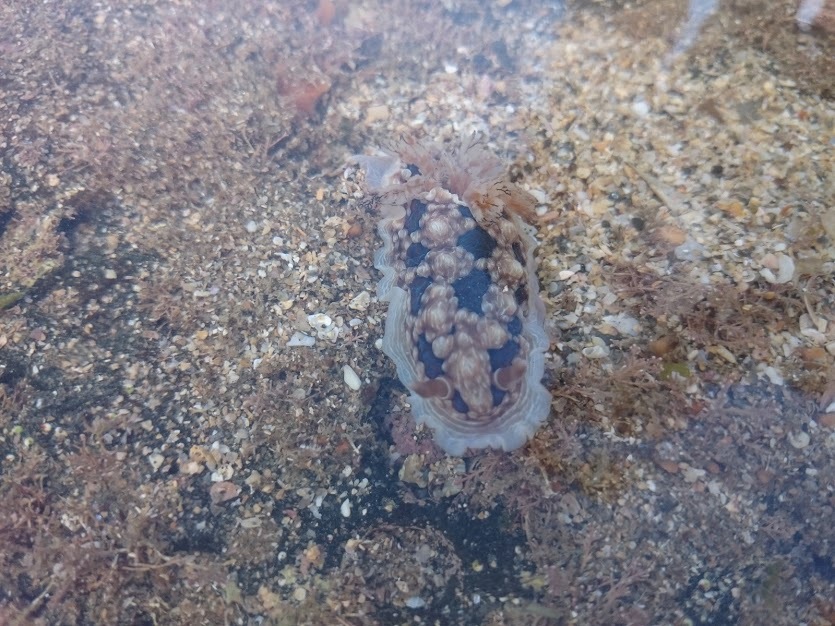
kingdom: Animalia
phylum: Mollusca
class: Gastropoda
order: Nudibranchia
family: Dendrodorididae
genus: Dendrodoris
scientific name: Dendrodoris krusensternii
